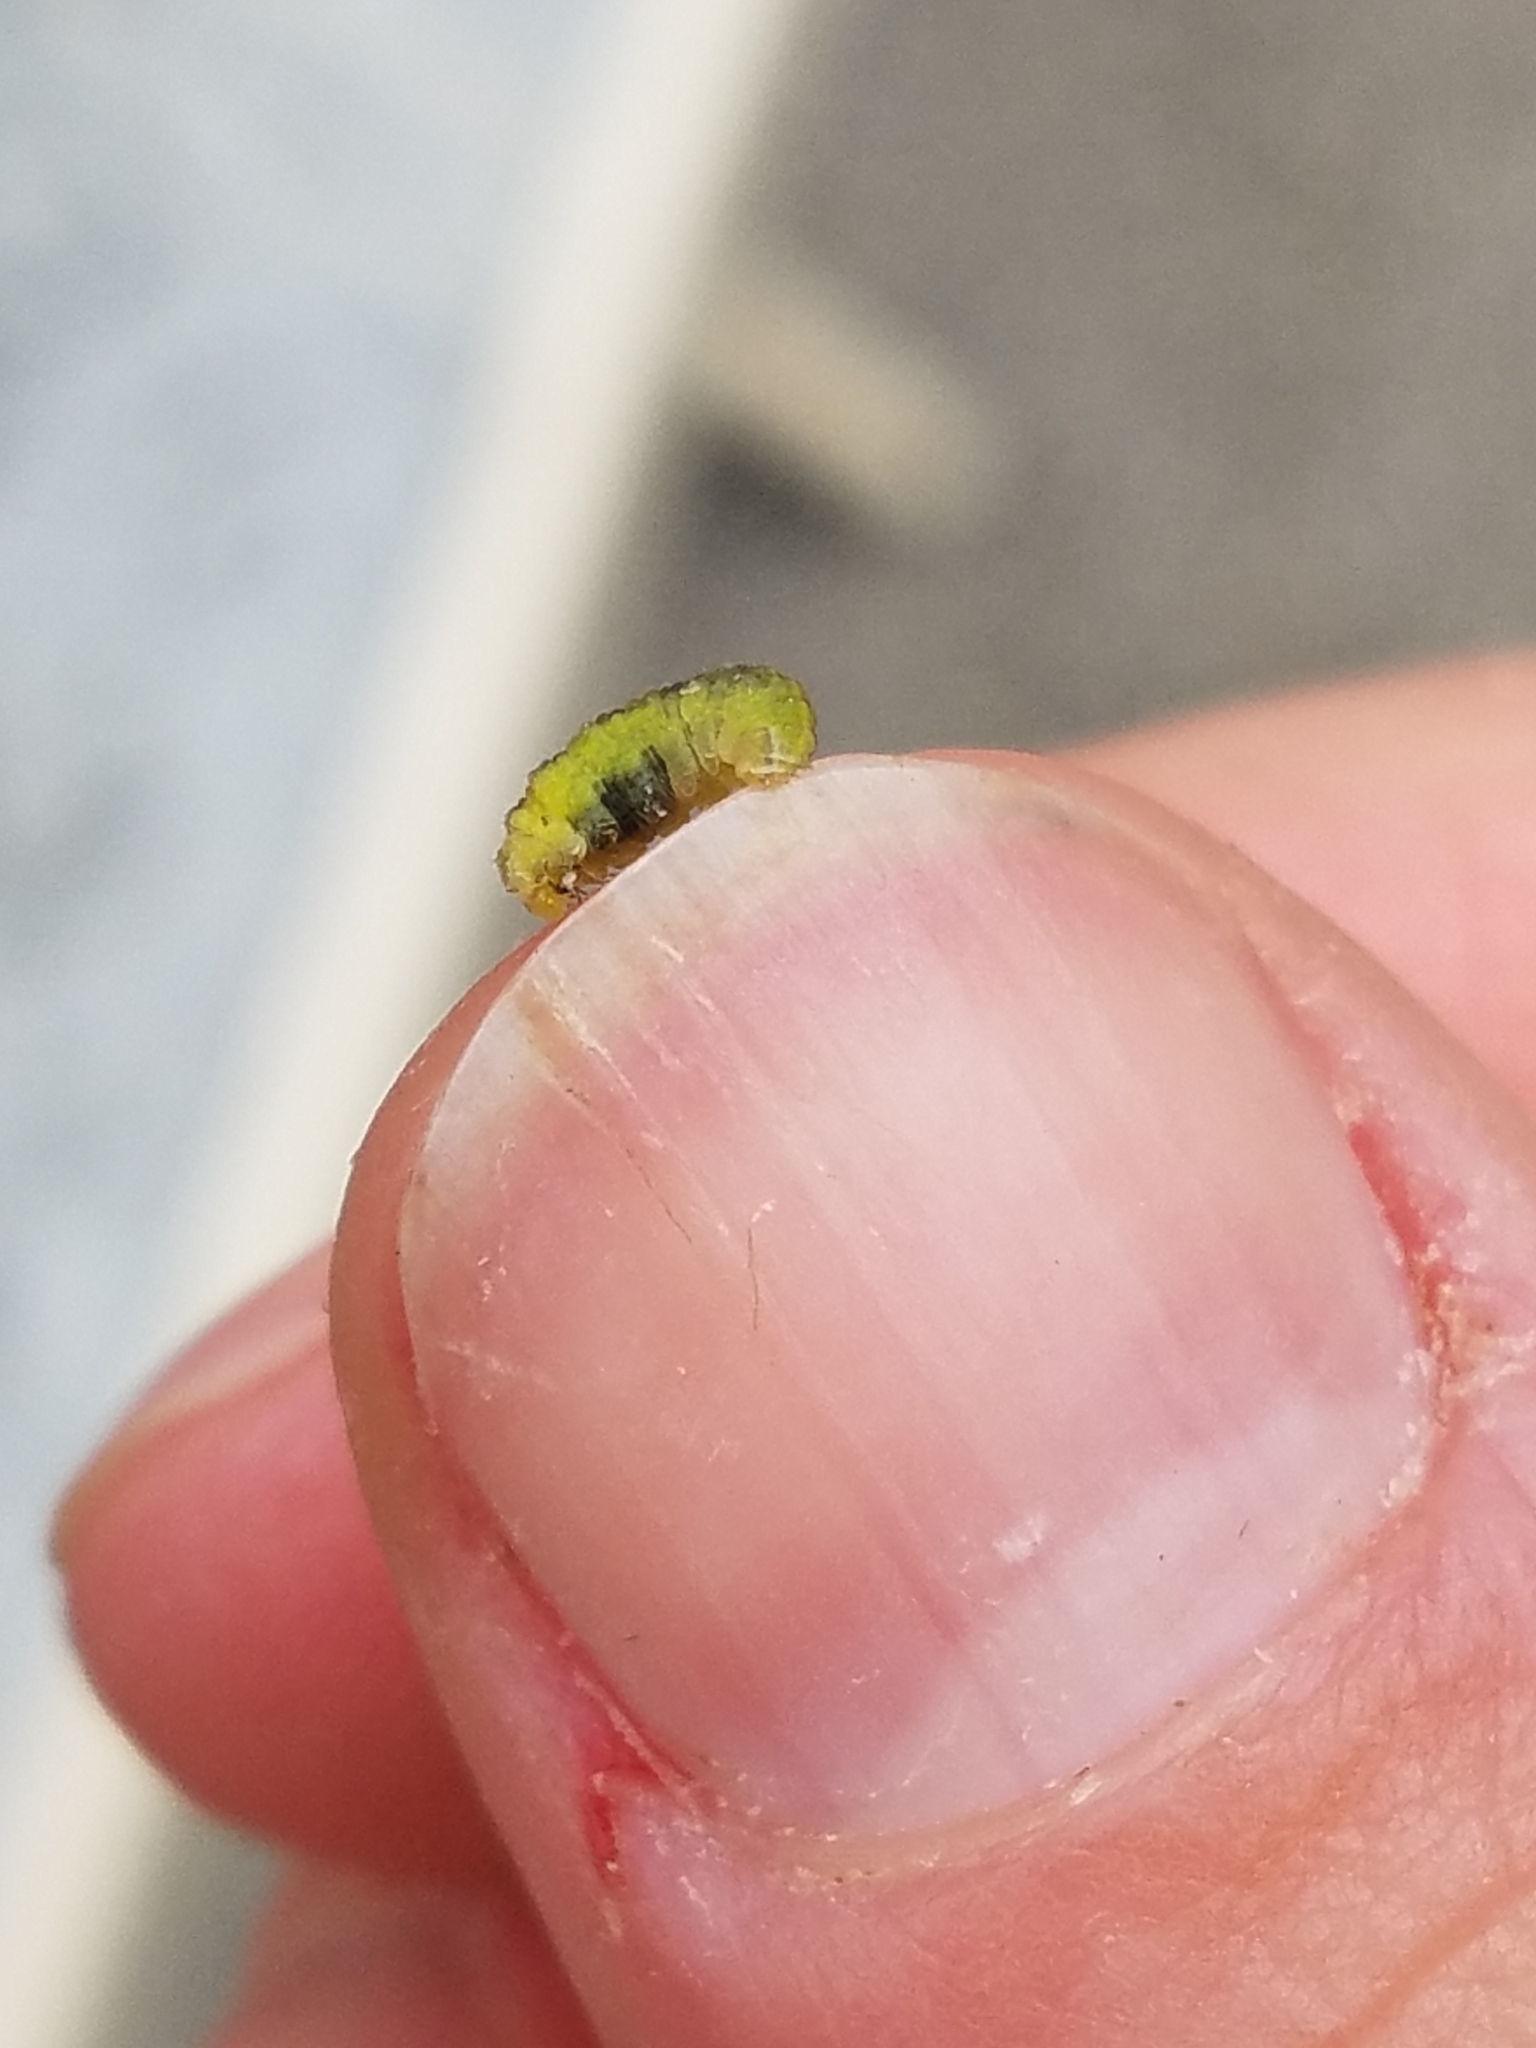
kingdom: Animalia
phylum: Arthropoda
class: Insecta
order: Diptera
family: Syrphidae
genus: Eupeodes
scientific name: Eupeodes pomus
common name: Short-tailed aphideater
